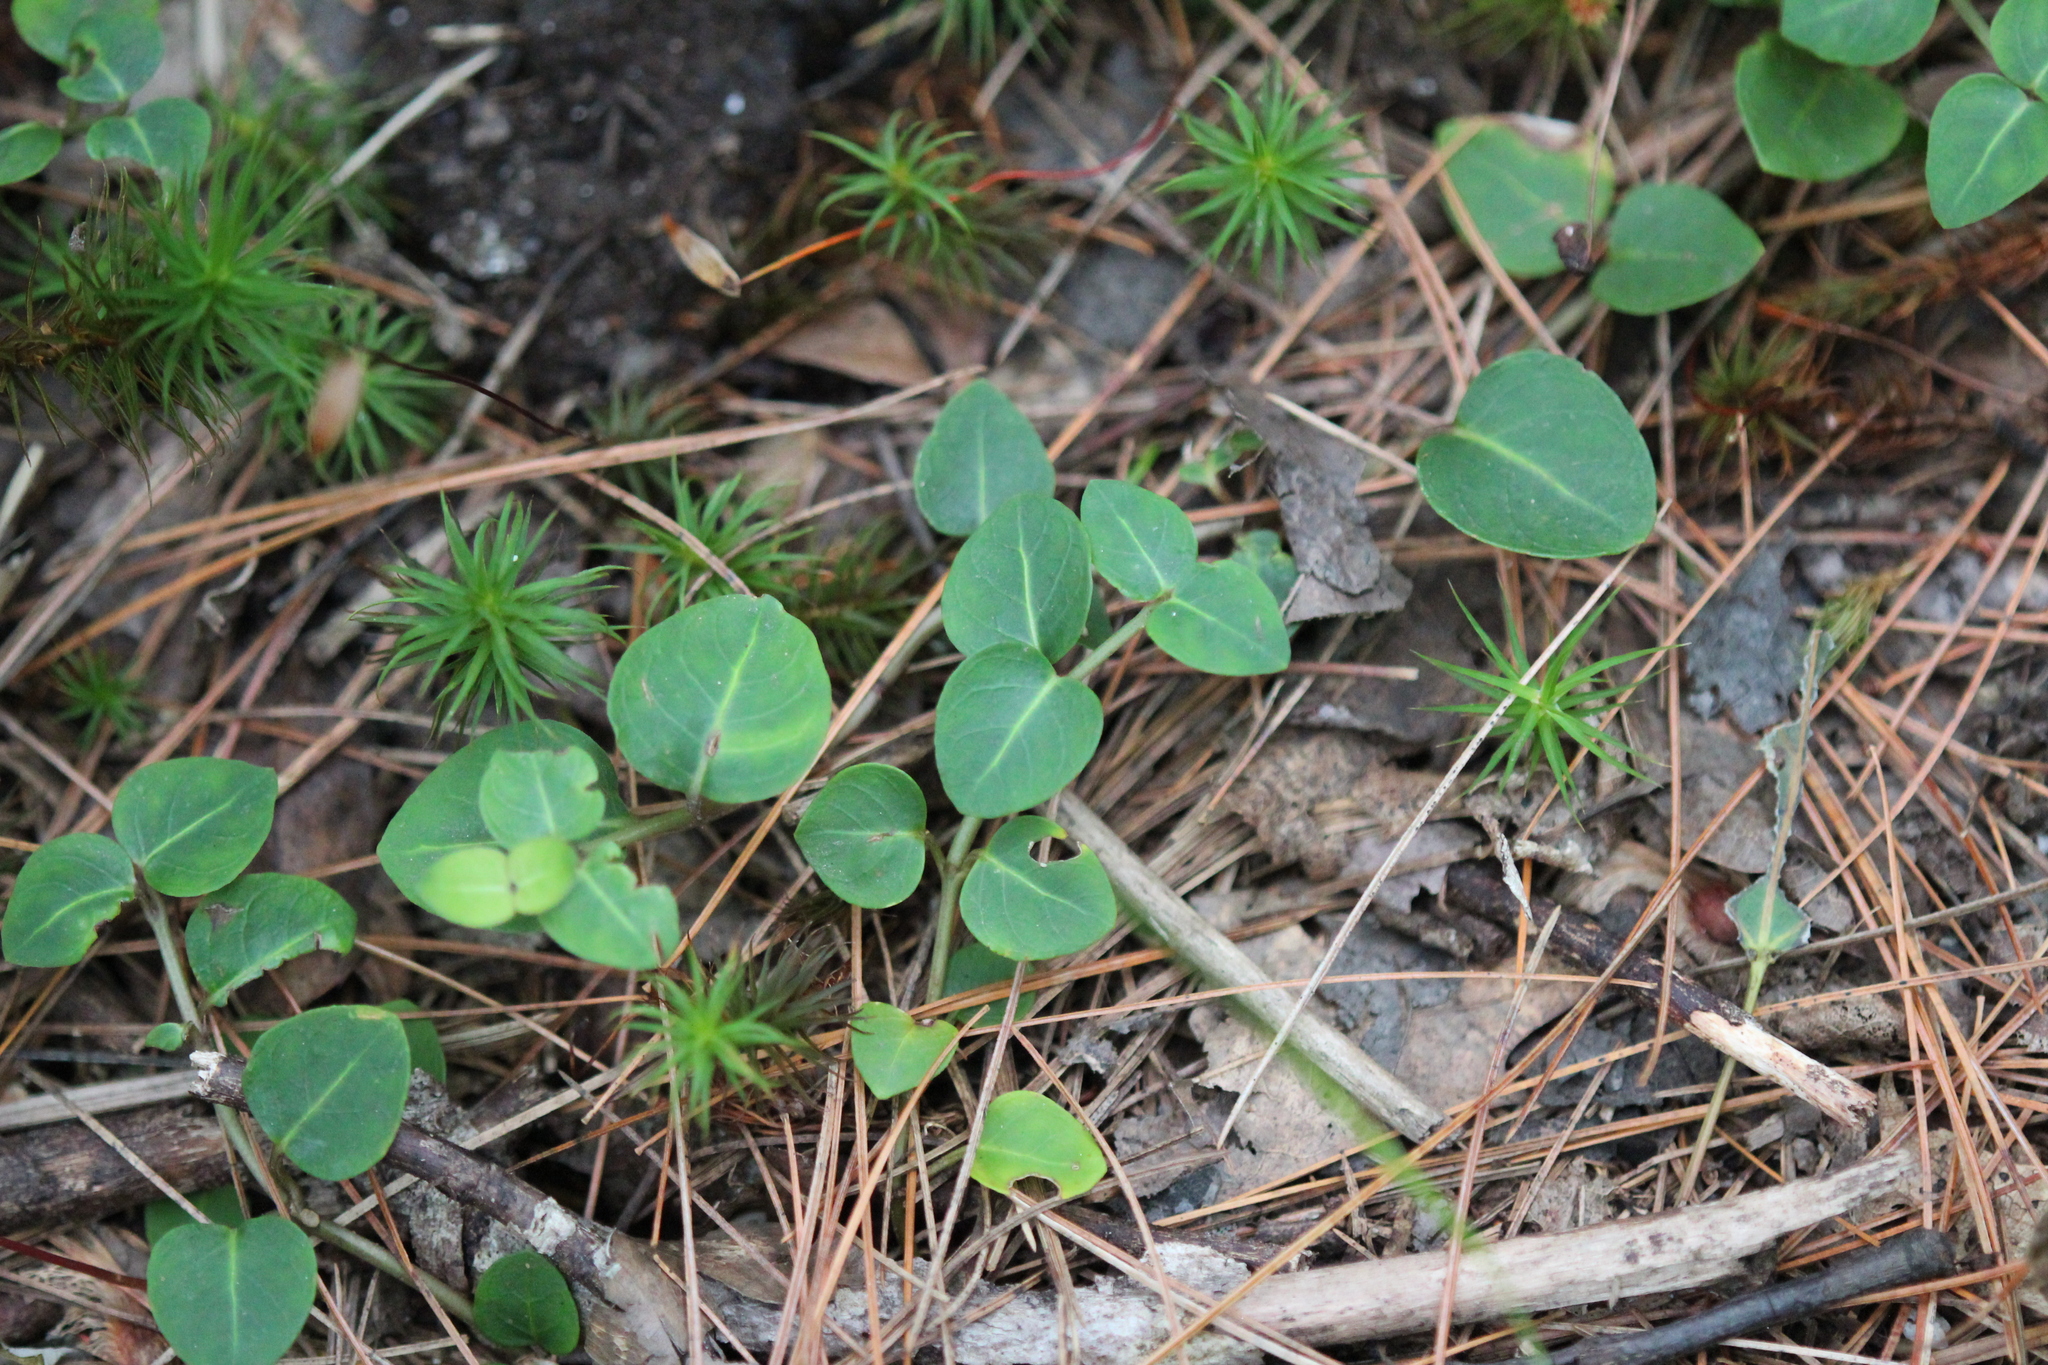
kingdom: Plantae
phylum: Tracheophyta
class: Magnoliopsida
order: Gentianales
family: Rubiaceae
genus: Mitchella
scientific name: Mitchella repens
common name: Partridge-berry
